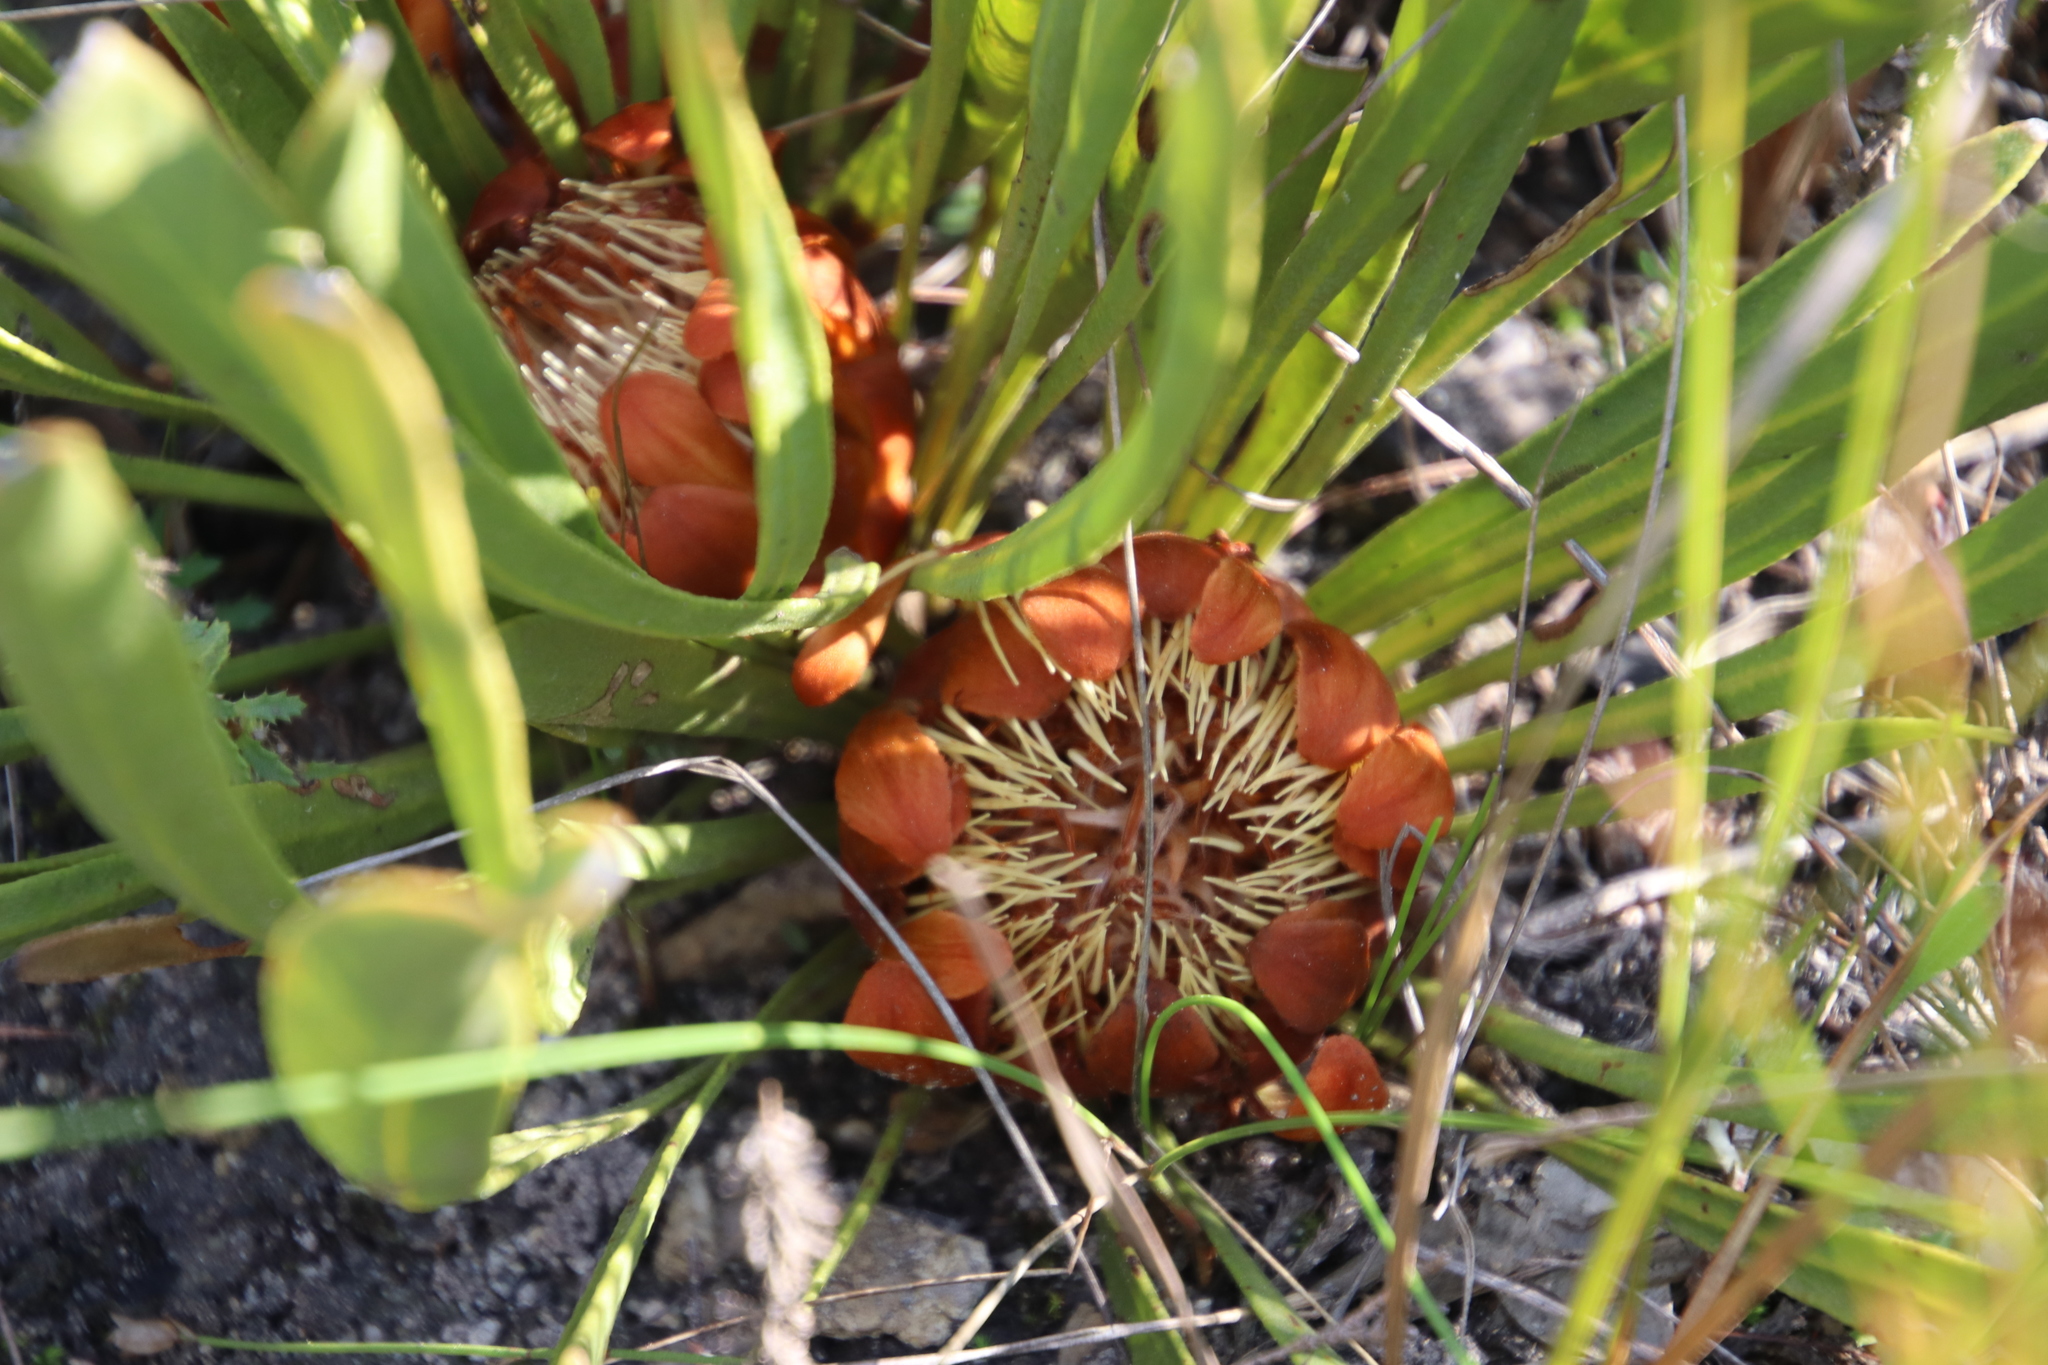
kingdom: Plantae
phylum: Tracheophyta
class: Magnoliopsida
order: Proteales
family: Proteaceae
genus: Protea
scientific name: Protea scabra
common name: Sandpaper-leaf sugarbush
